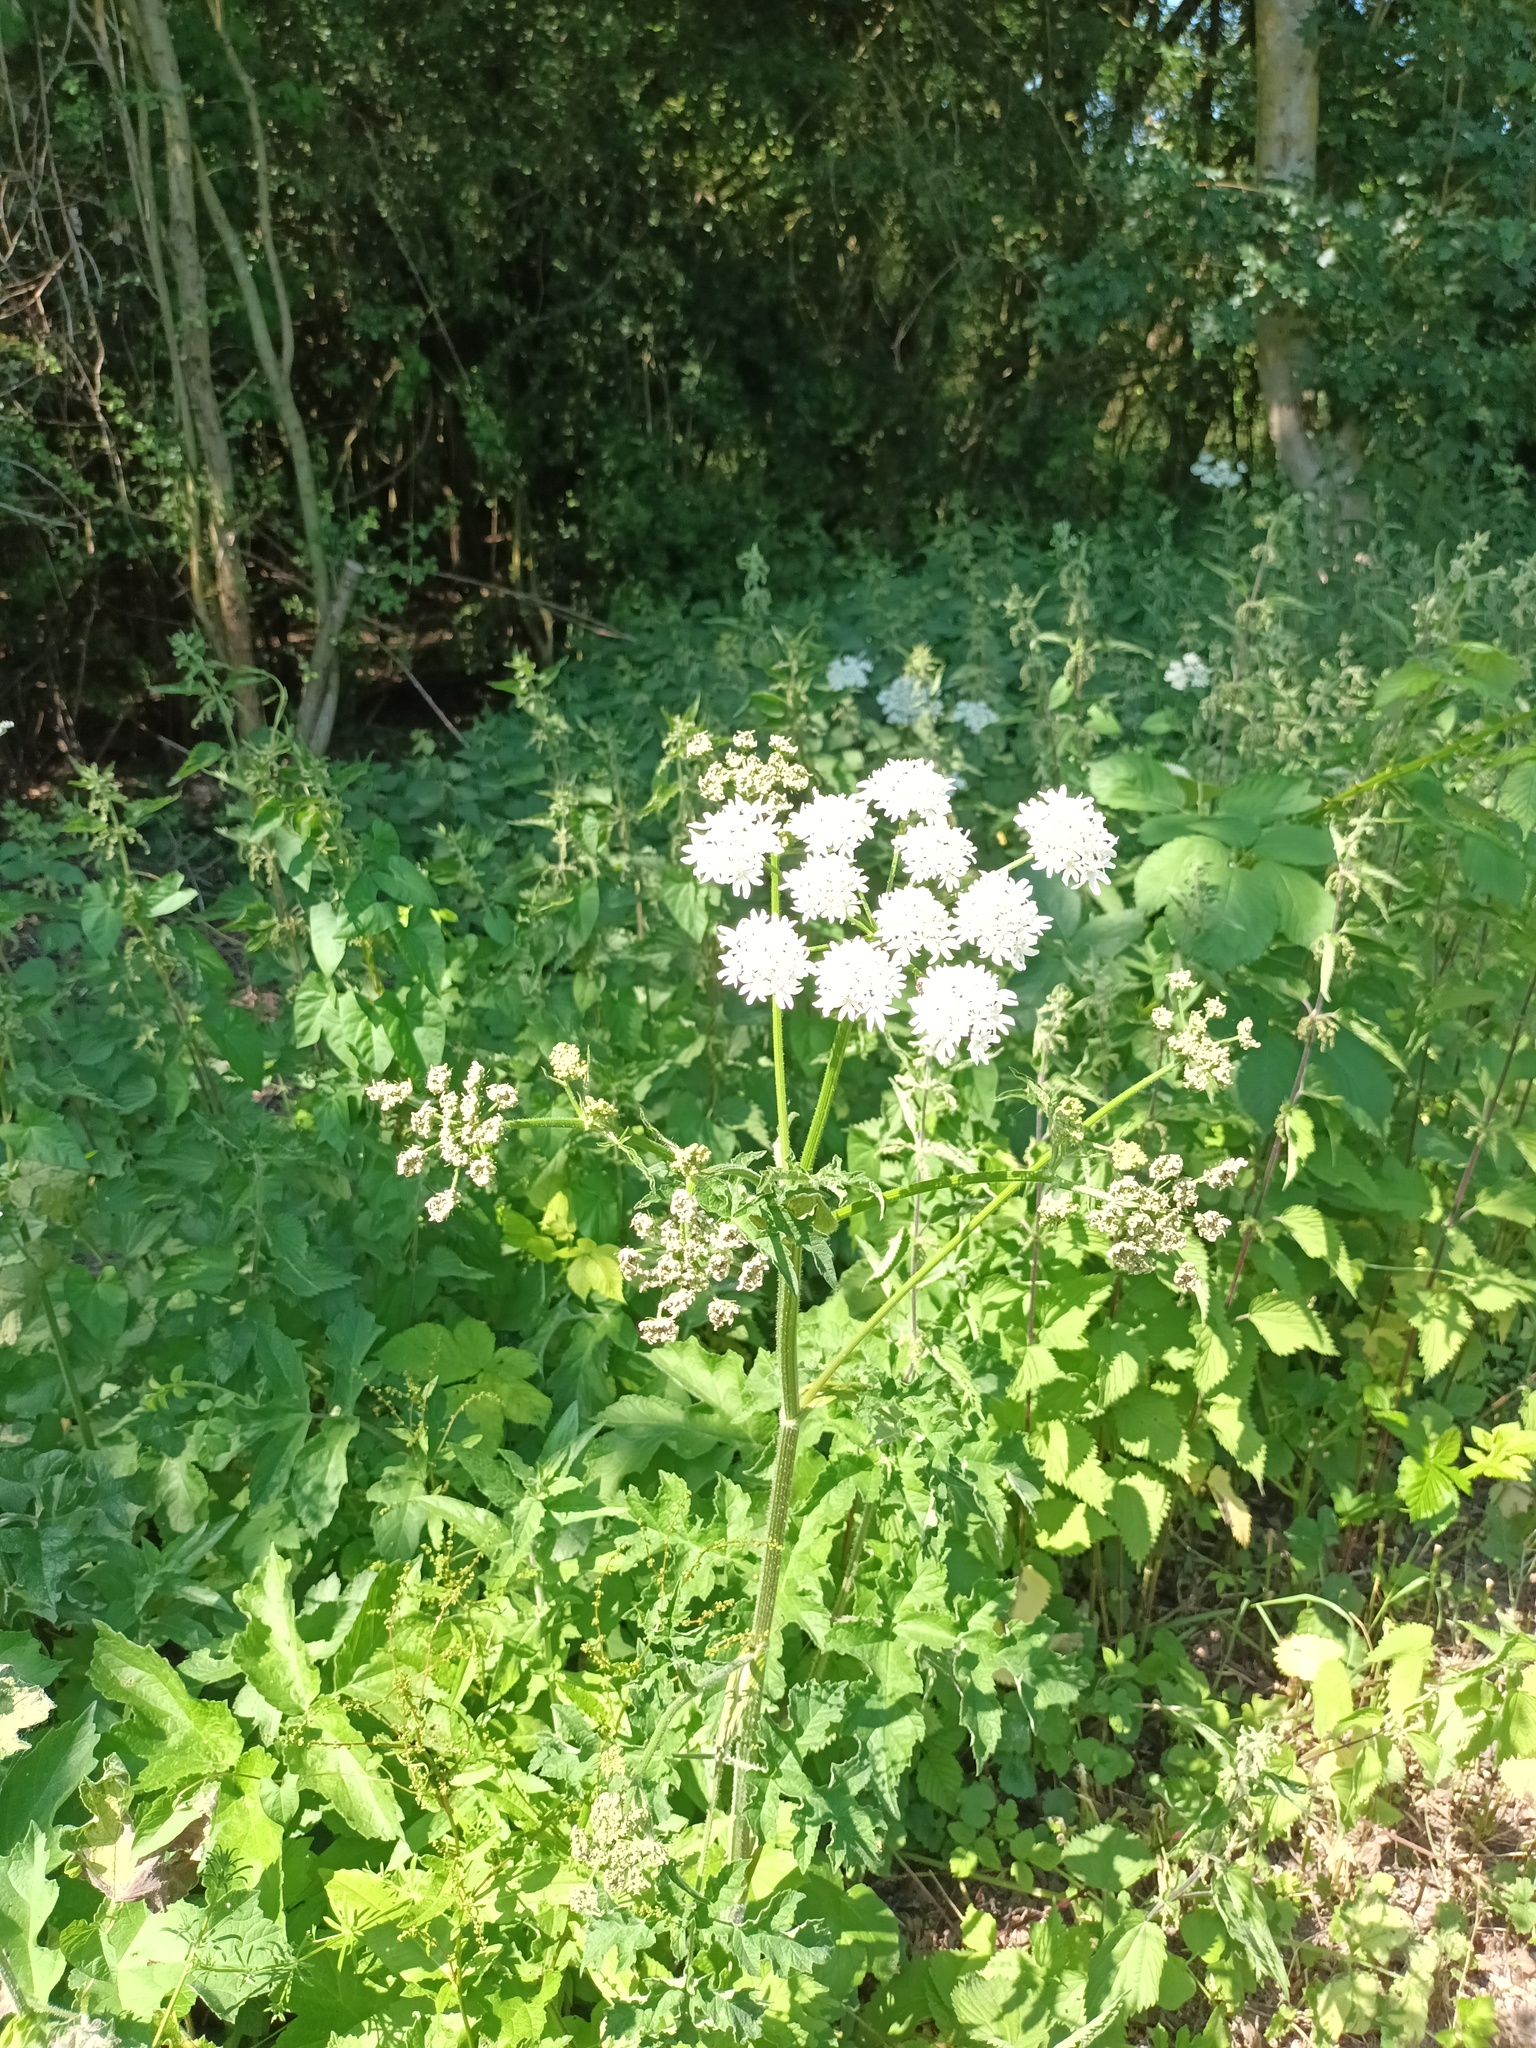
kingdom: Plantae
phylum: Tracheophyta
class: Magnoliopsida
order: Apiales
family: Apiaceae
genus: Heracleum
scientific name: Heracleum sphondylium
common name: Hogweed
